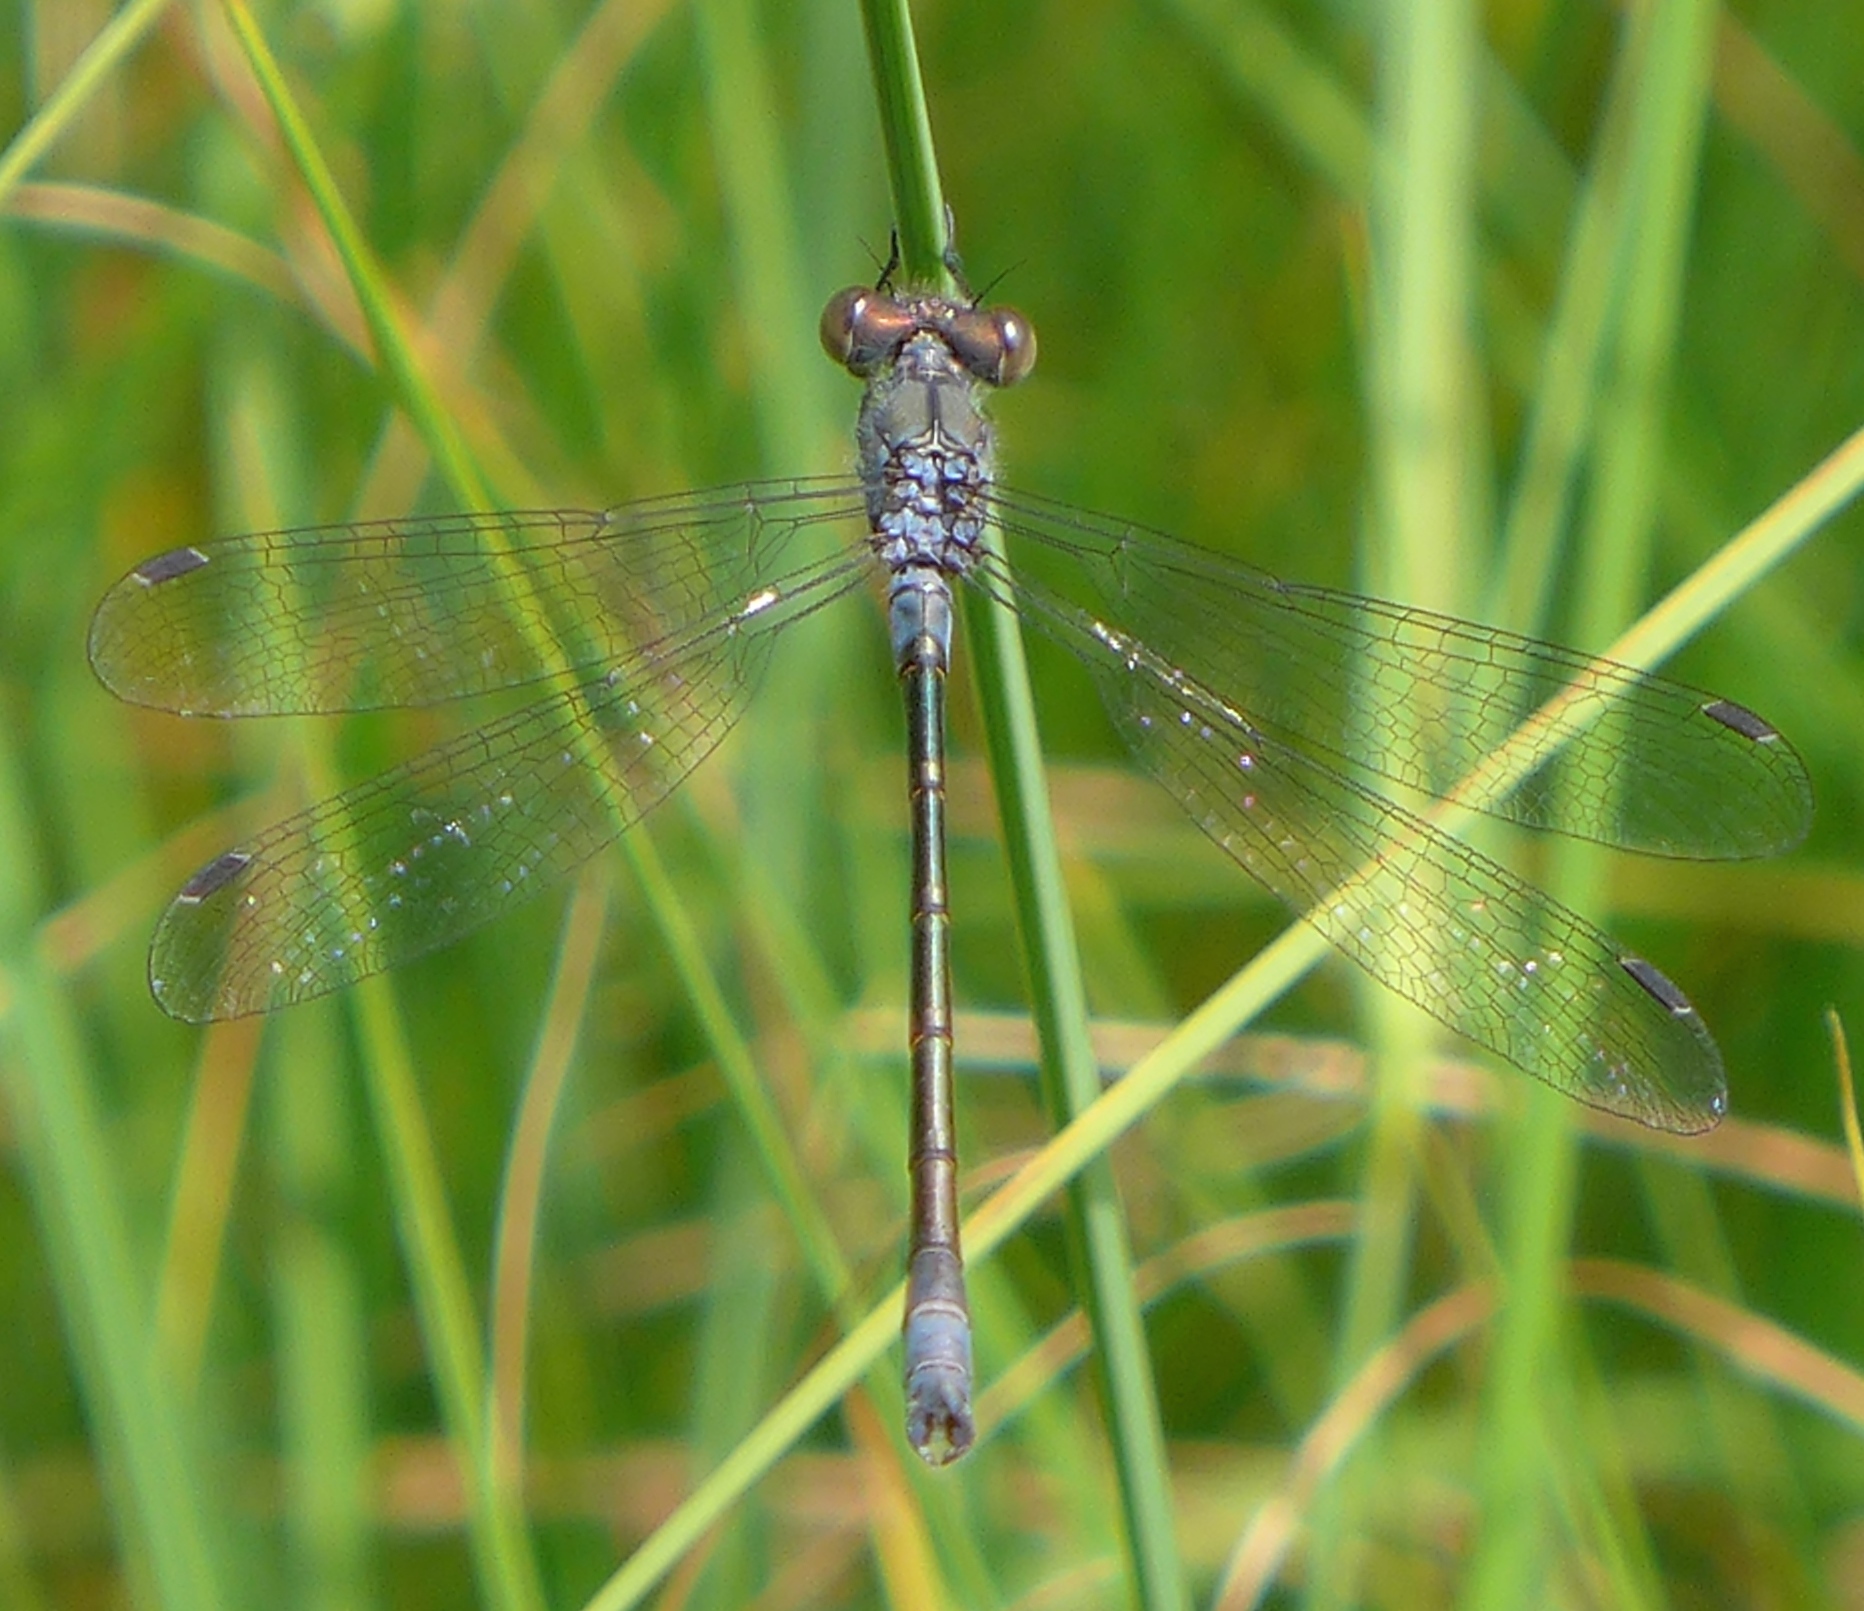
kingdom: Animalia
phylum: Arthropoda
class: Insecta
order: Odonata
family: Lestidae
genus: Lestes
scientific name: Lestes stultus
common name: Black spreadwing
